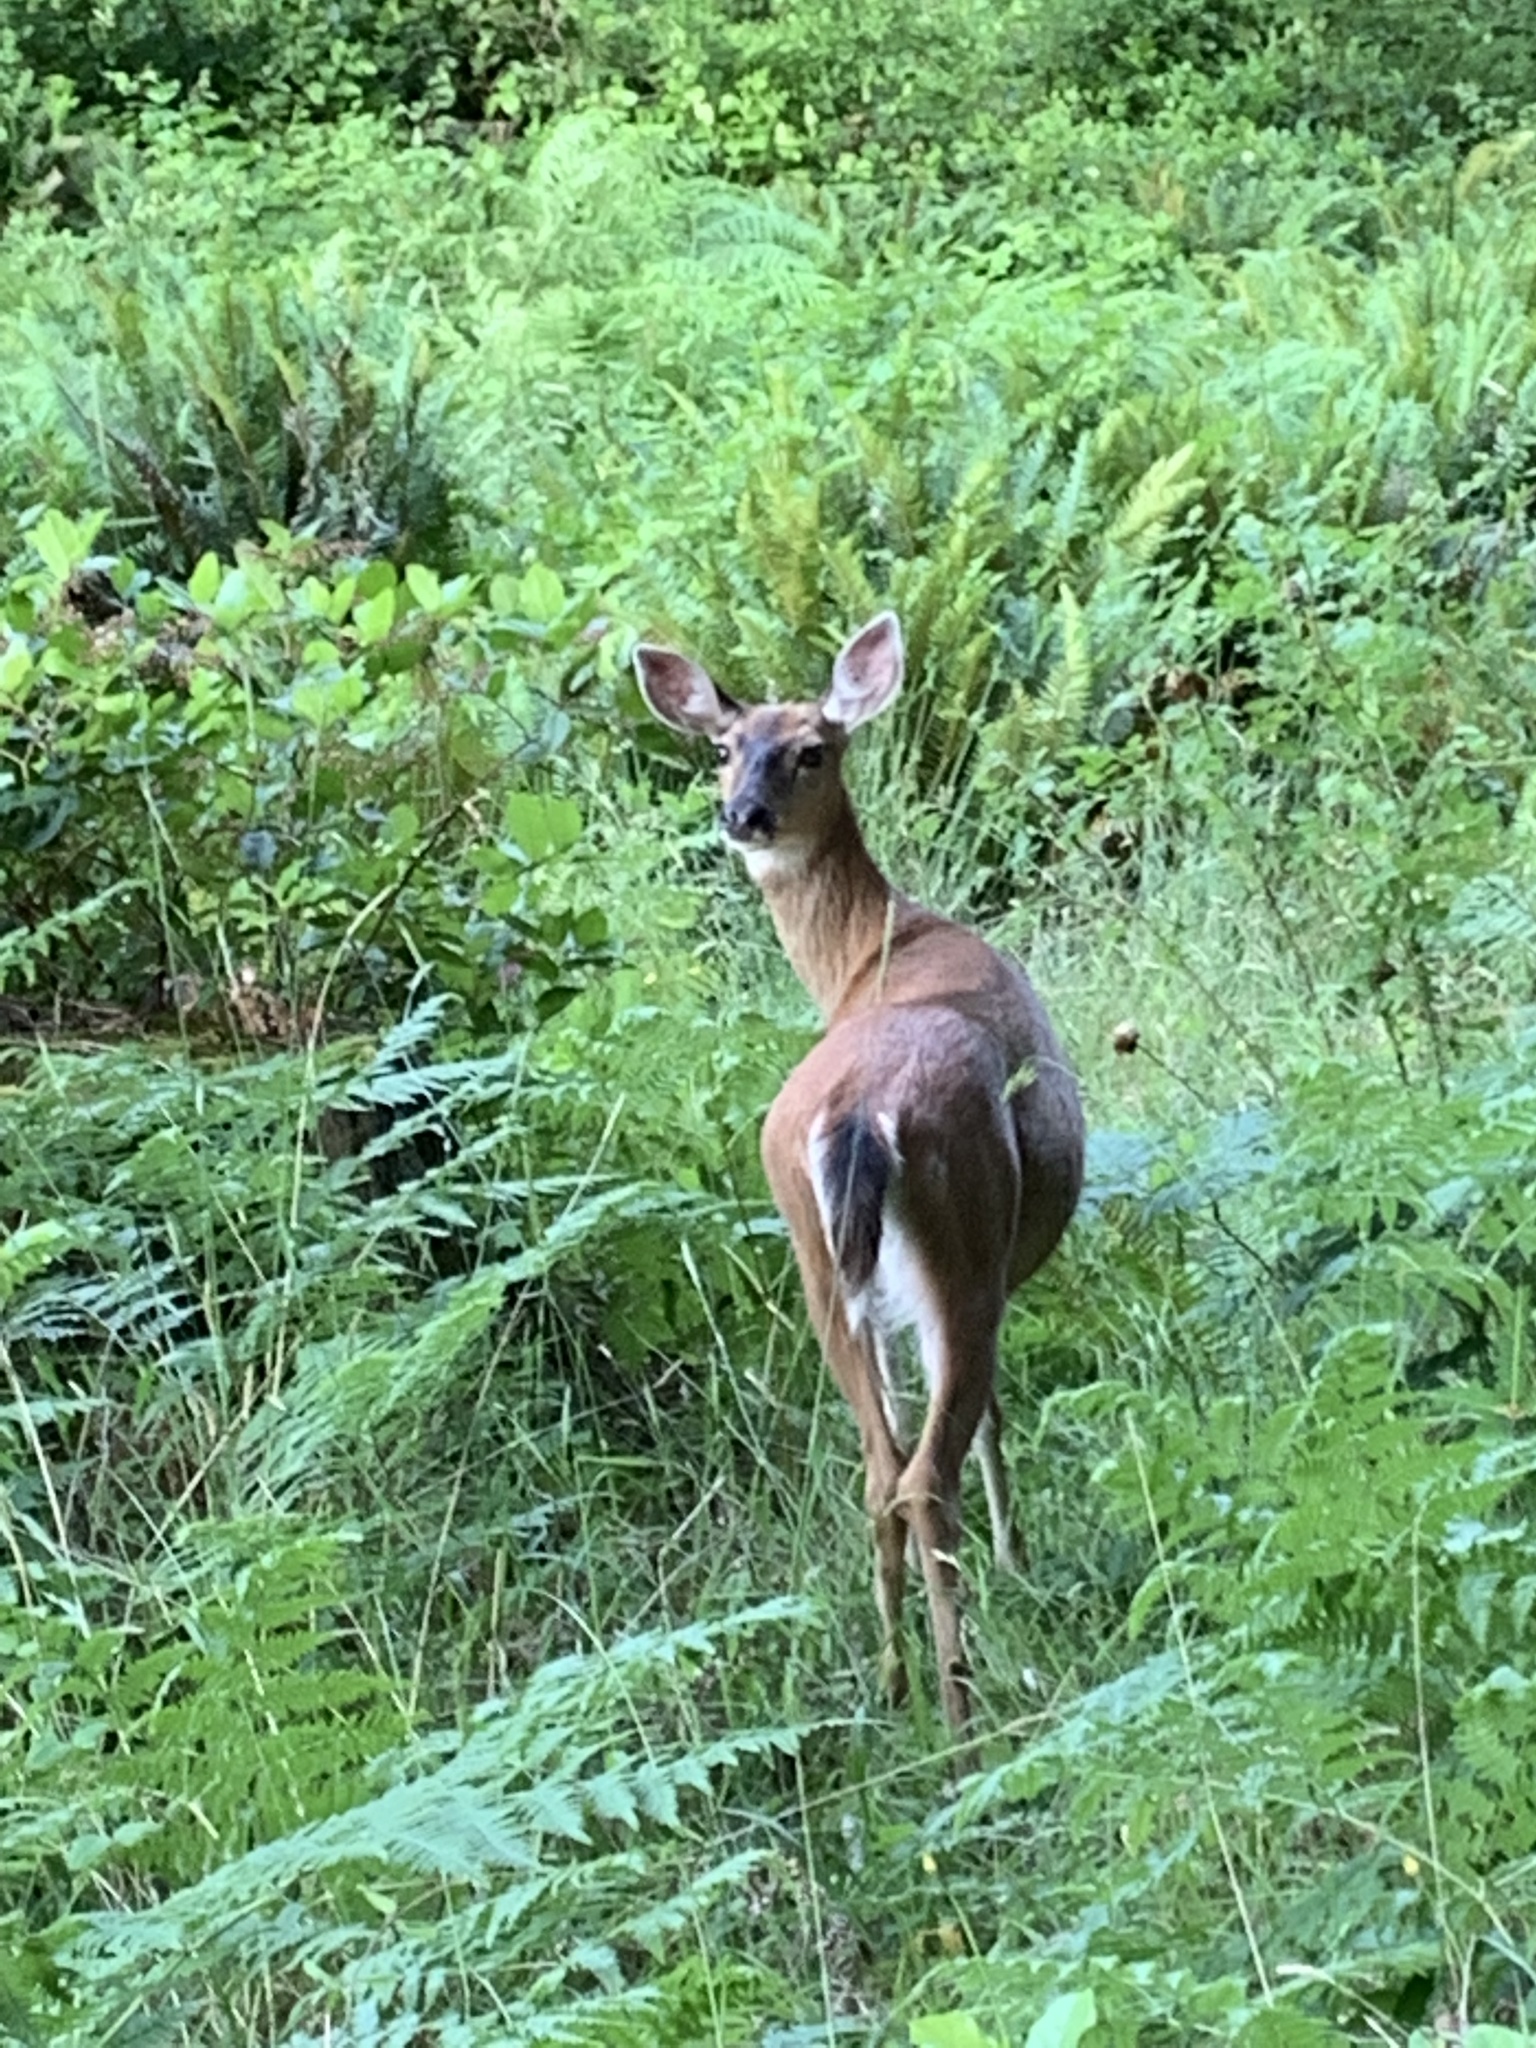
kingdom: Animalia
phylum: Chordata
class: Mammalia
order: Artiodactyla
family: Cervidae
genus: Odocoileus
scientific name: Odocoileus hemionus
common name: Mule deer
